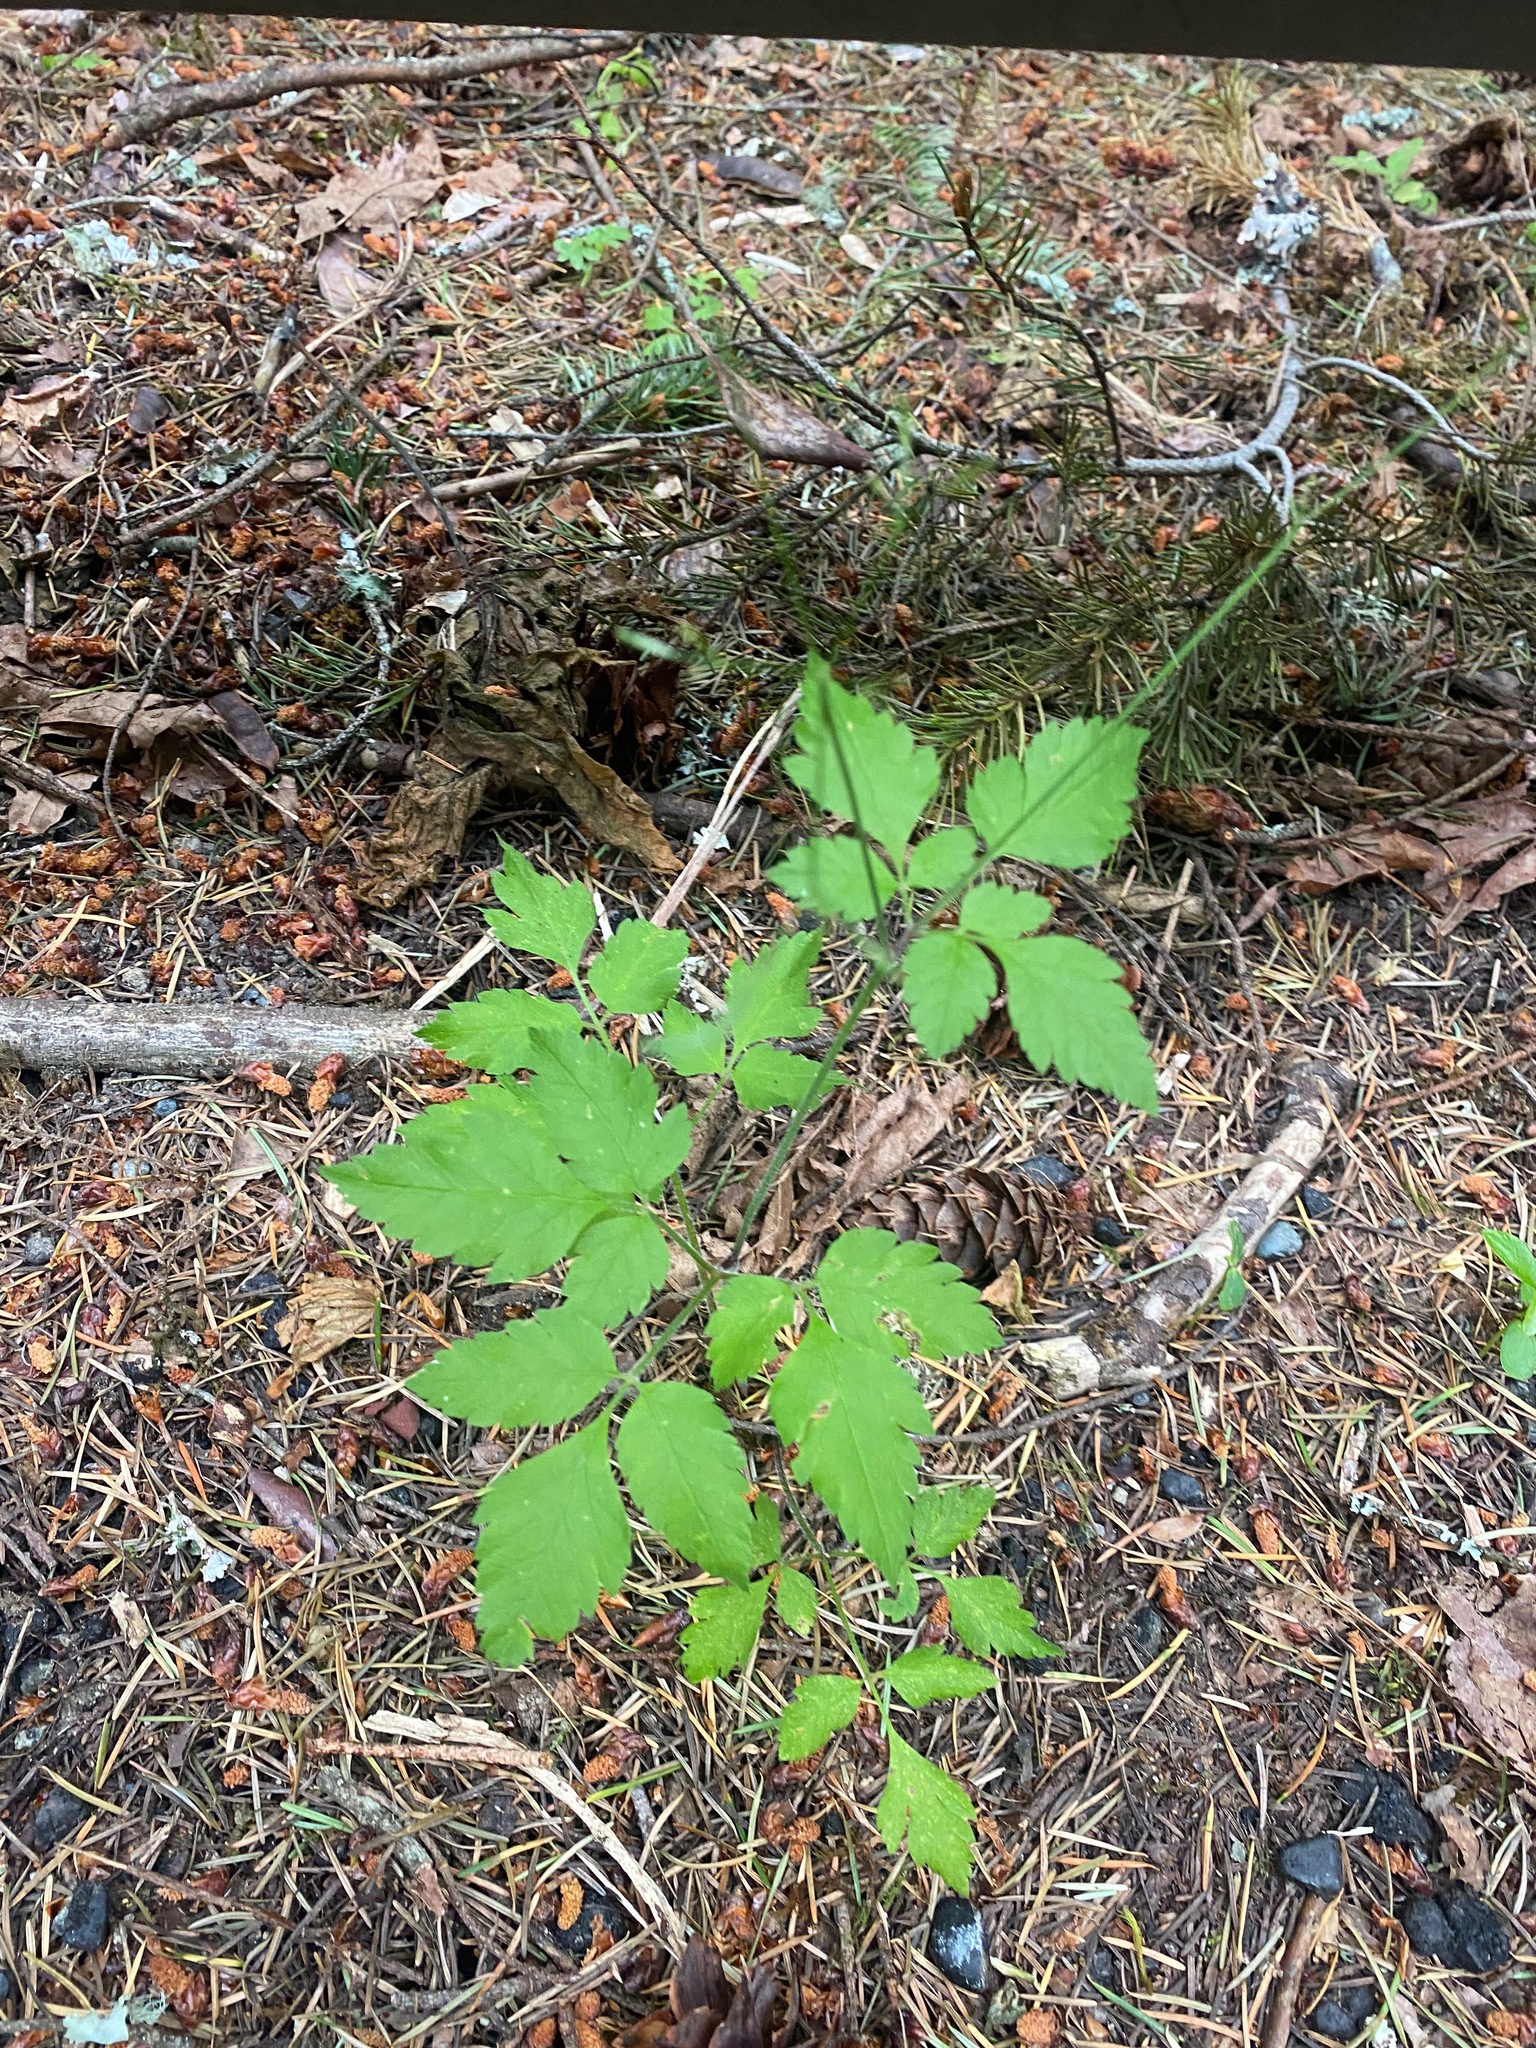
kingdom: Plantae
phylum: Tracheophyta
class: Magnoliopsida
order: Apiales
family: Apiaceae
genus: Osmorhiza
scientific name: Osmorhiza berteroi
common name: Mountain sweet cicely
